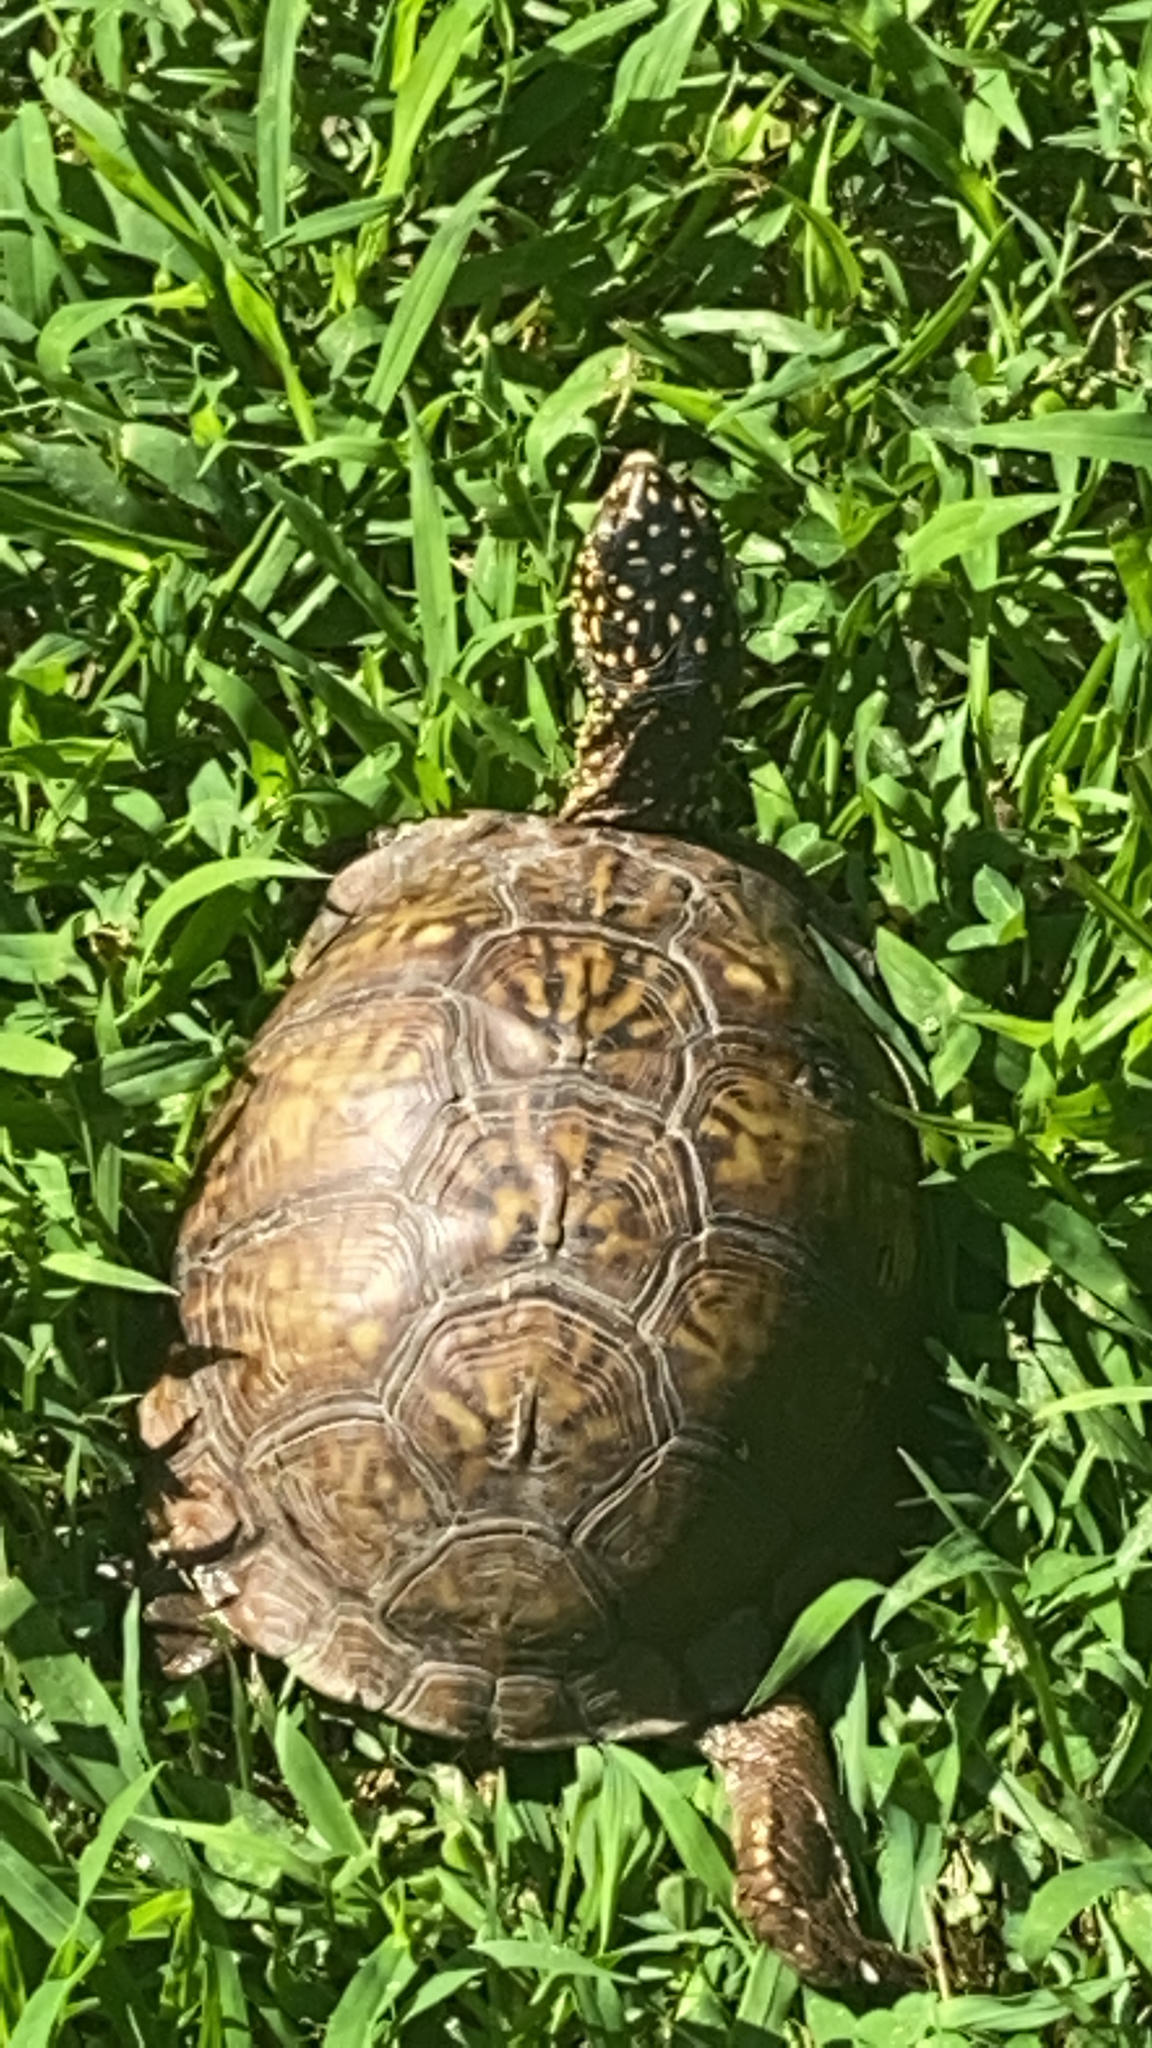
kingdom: Animalia
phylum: Chordata
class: Testudines
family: Emydidae
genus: Terrapene
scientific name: Terrapene carolina
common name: Common box turtle
